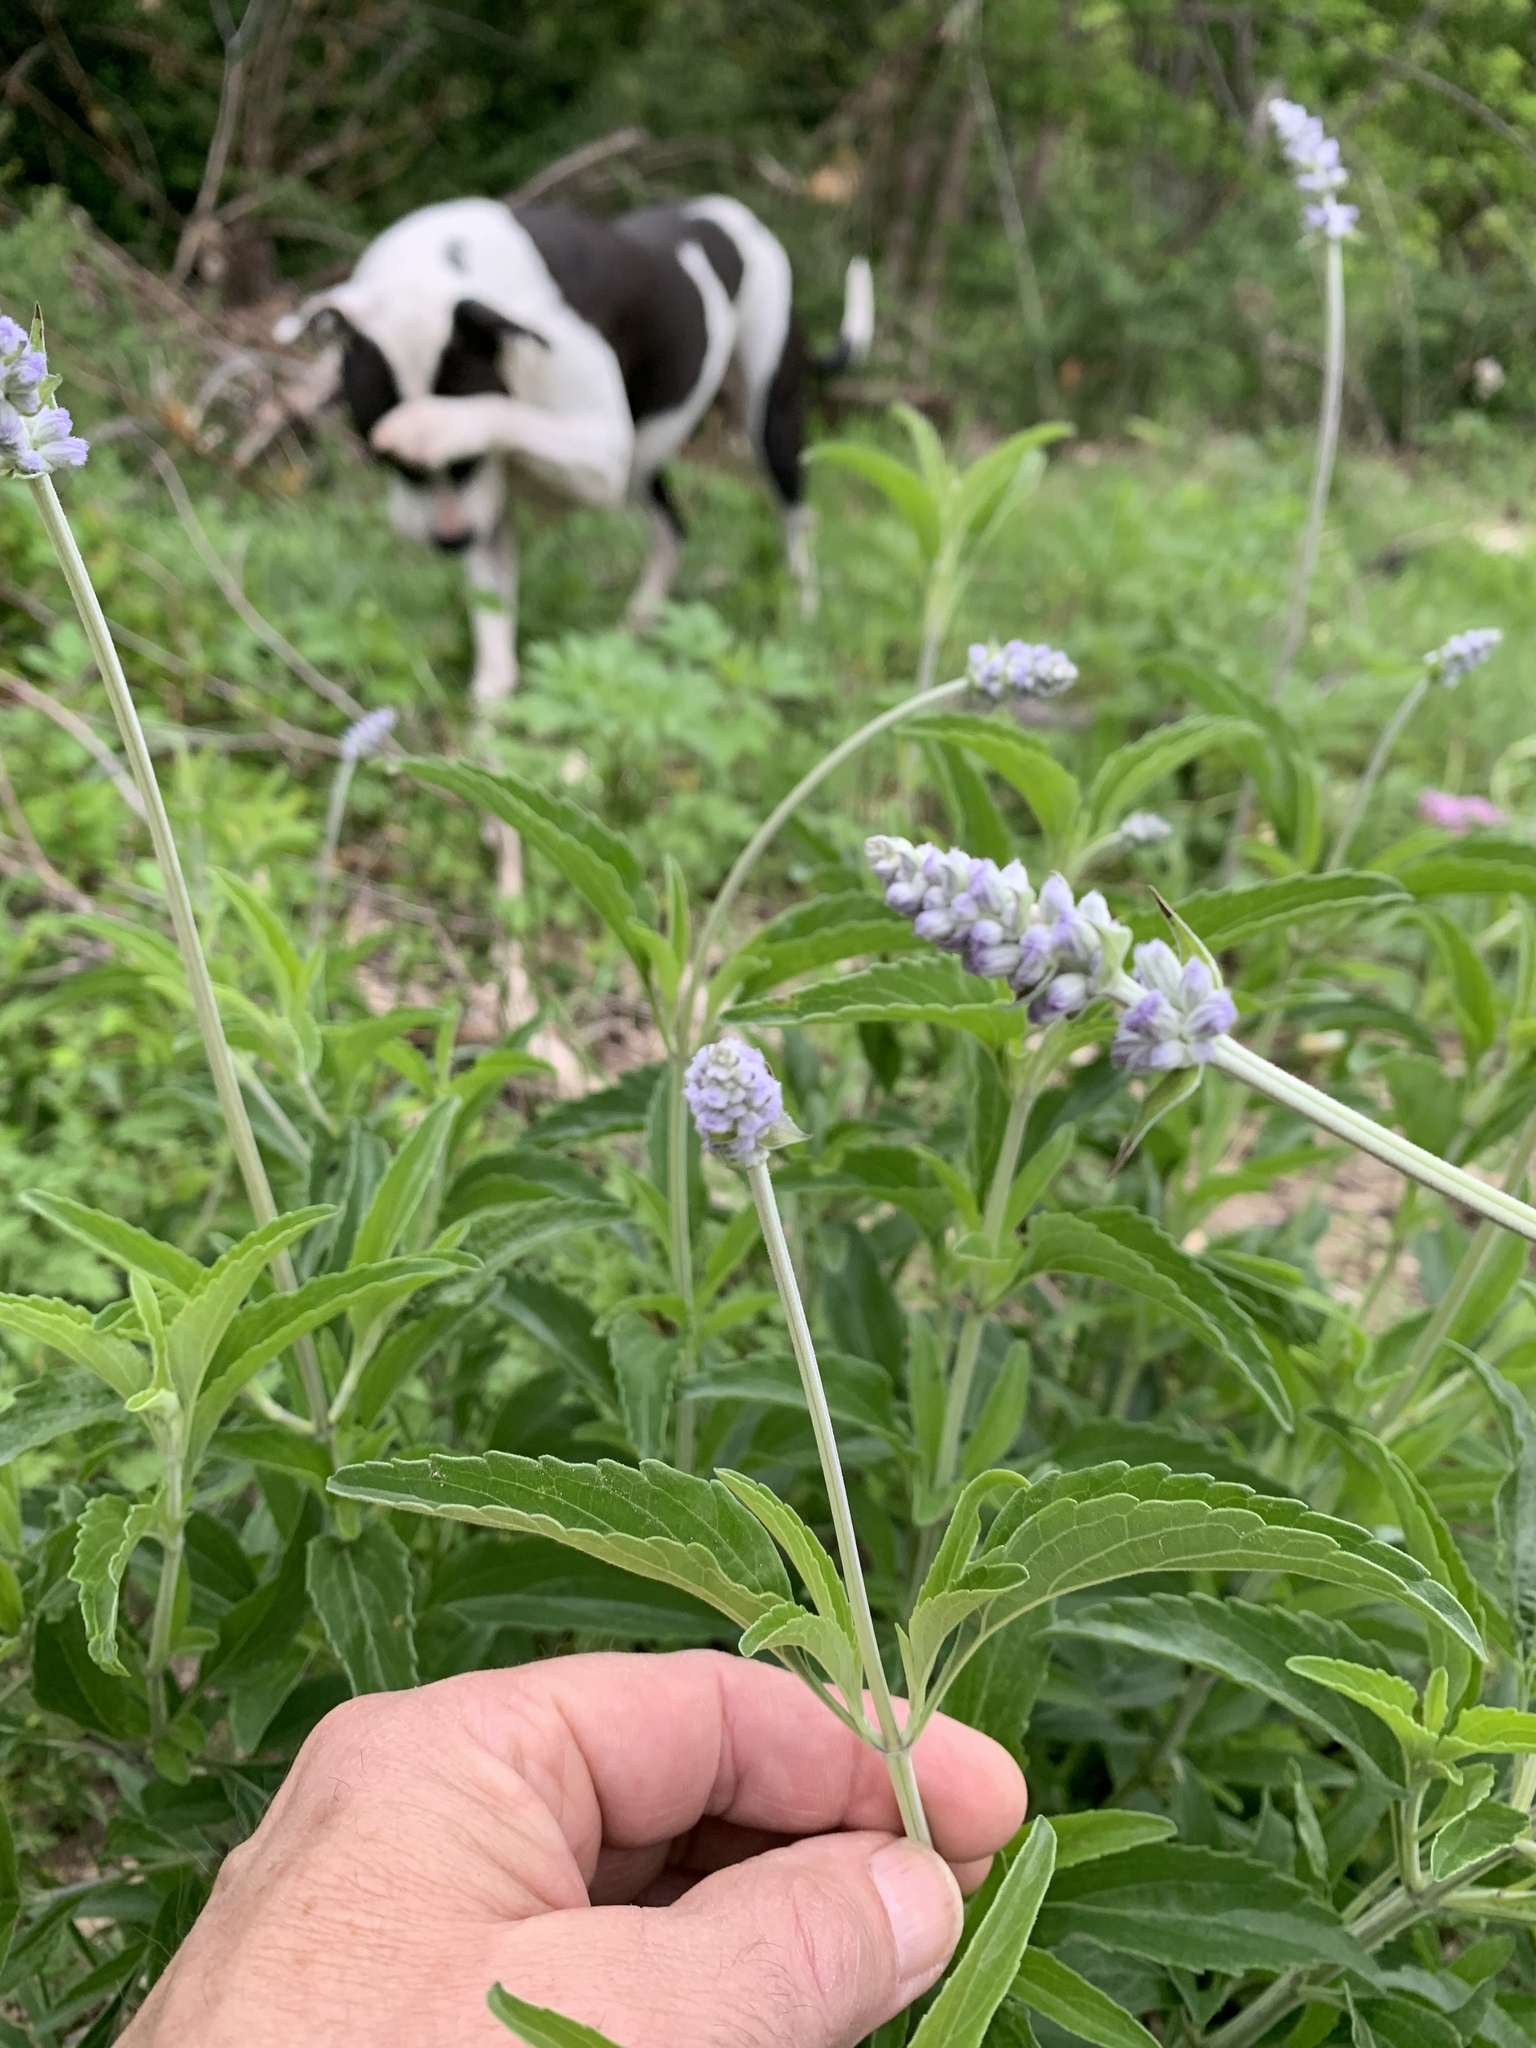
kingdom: Plantae
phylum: Tracheophyta
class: Magnoliopsida
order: Lamiales
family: Lamiaceae
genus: Salvia
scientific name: Salvia farinacea
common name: Mealy sage
